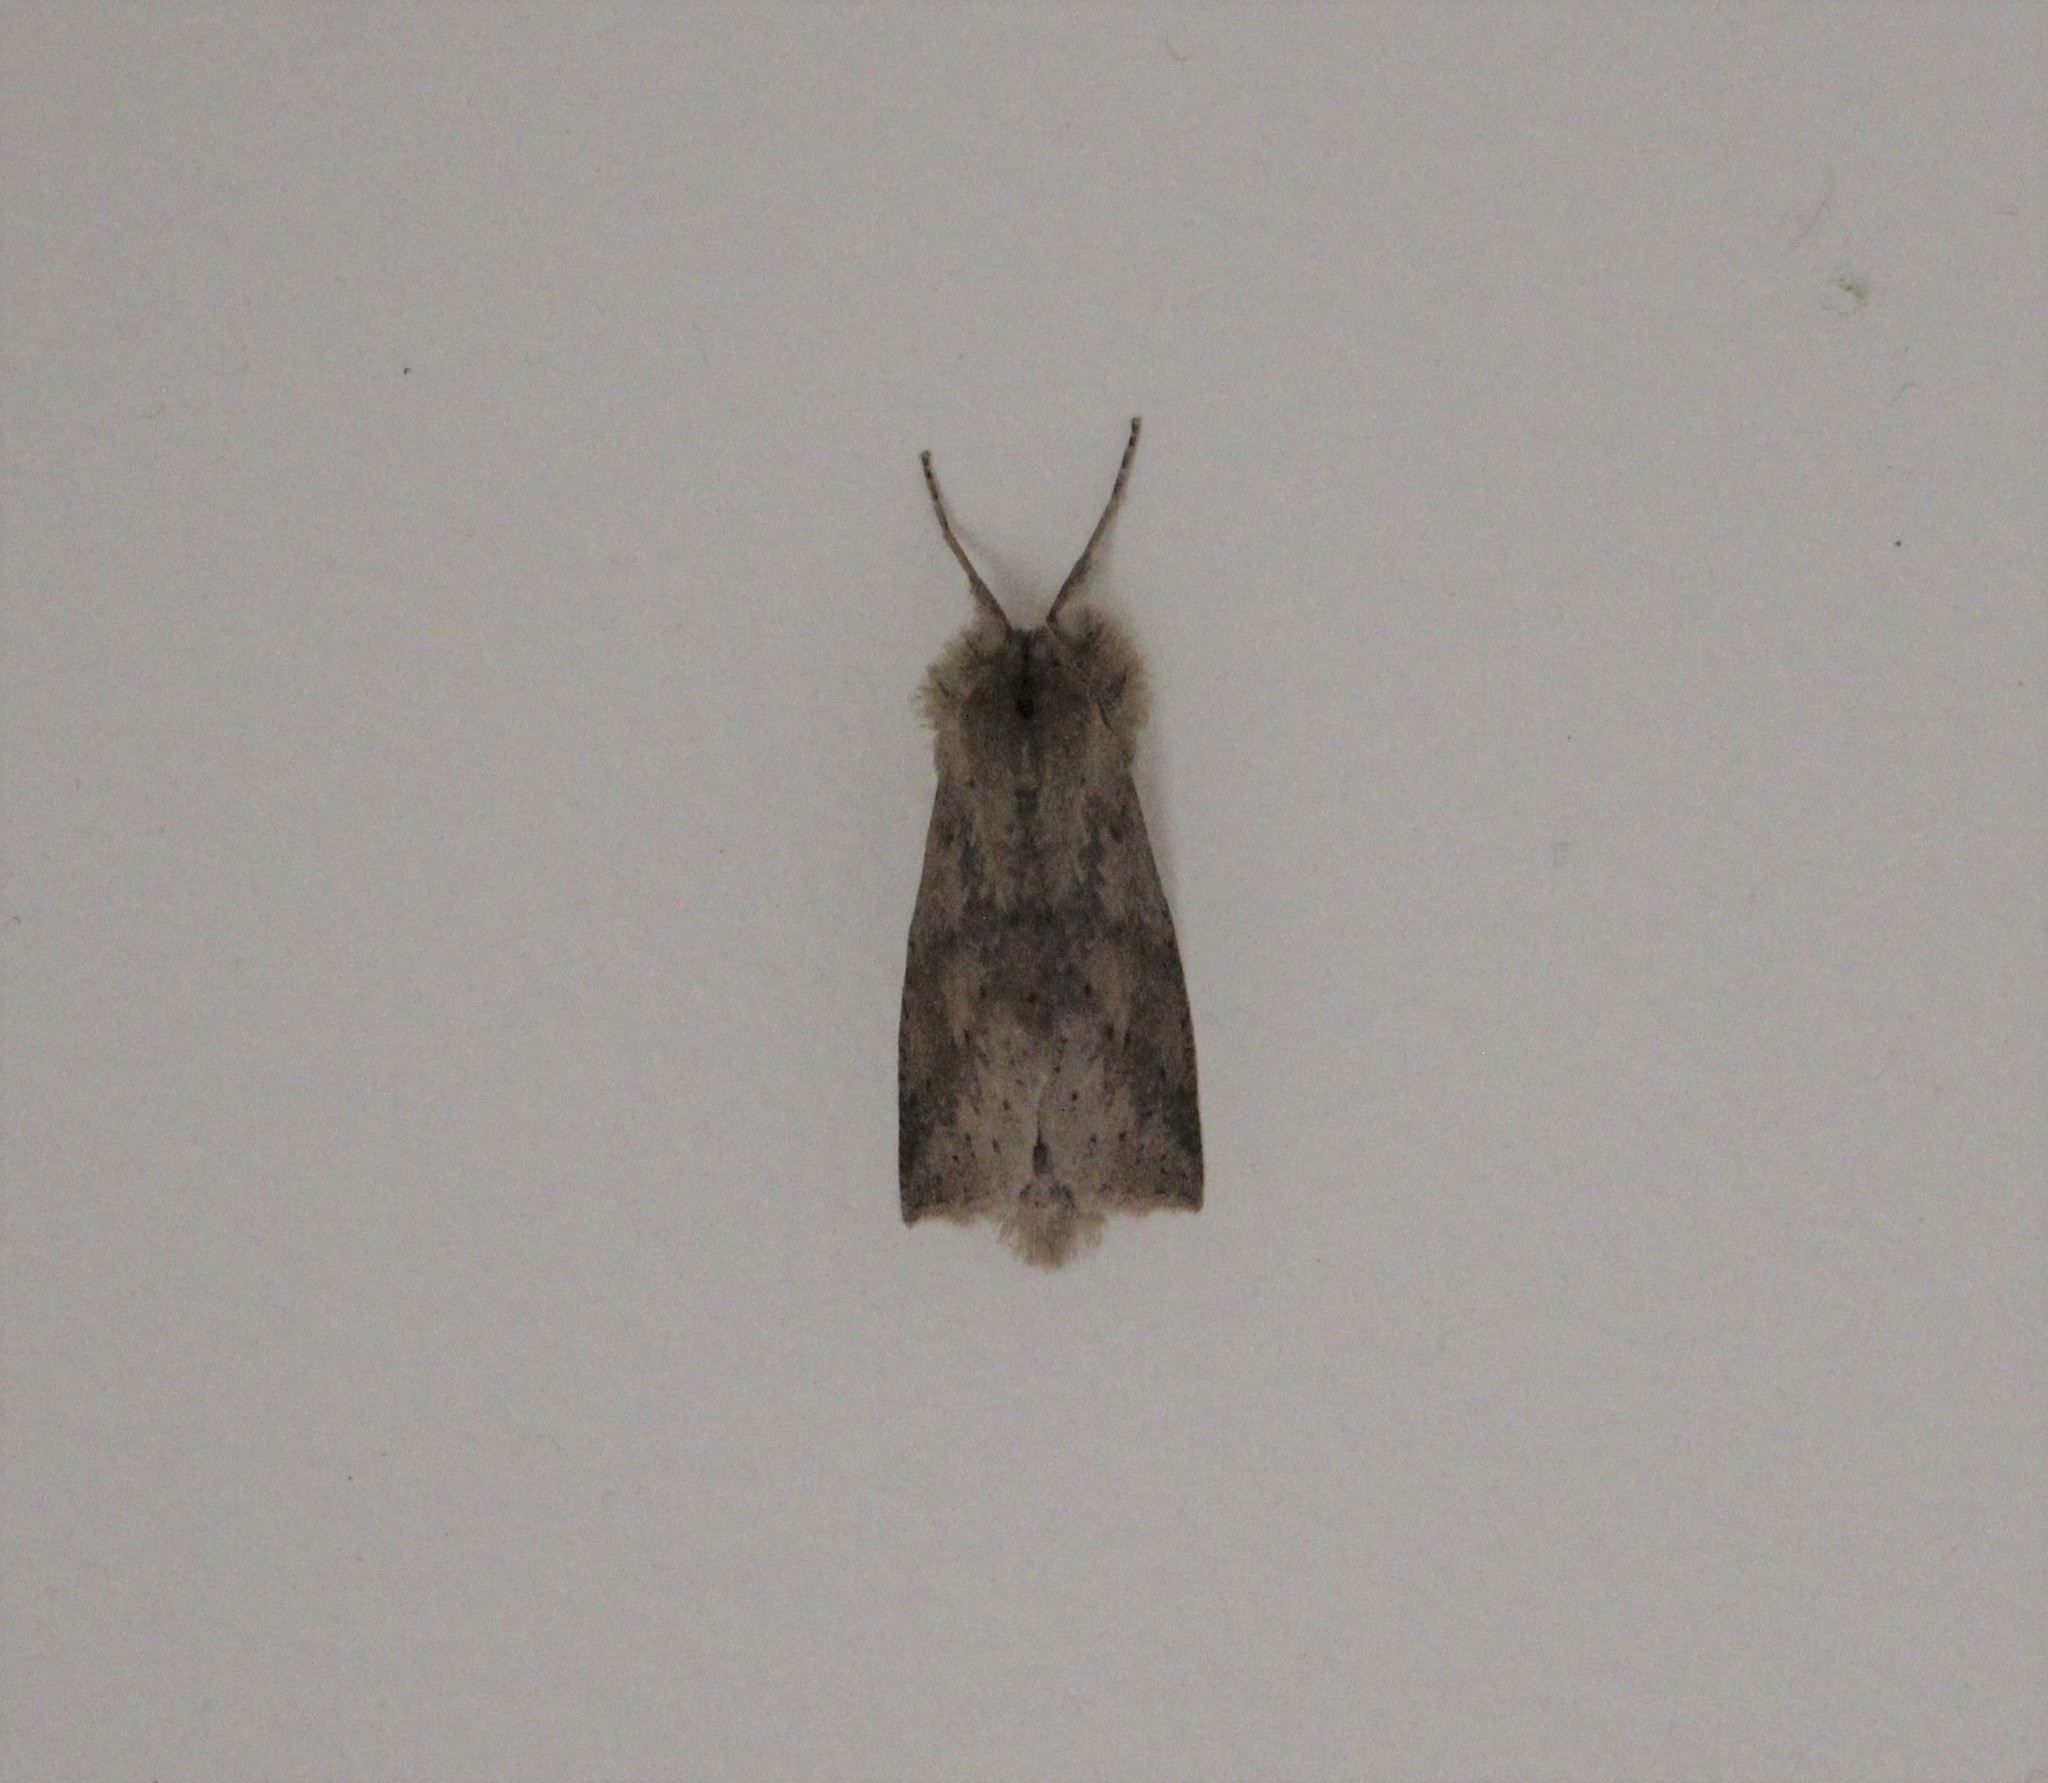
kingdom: Animalia
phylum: Arthropoda
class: Insecta
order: Lepidoptera
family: Geometridae
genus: Declana
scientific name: Declana leptomera
